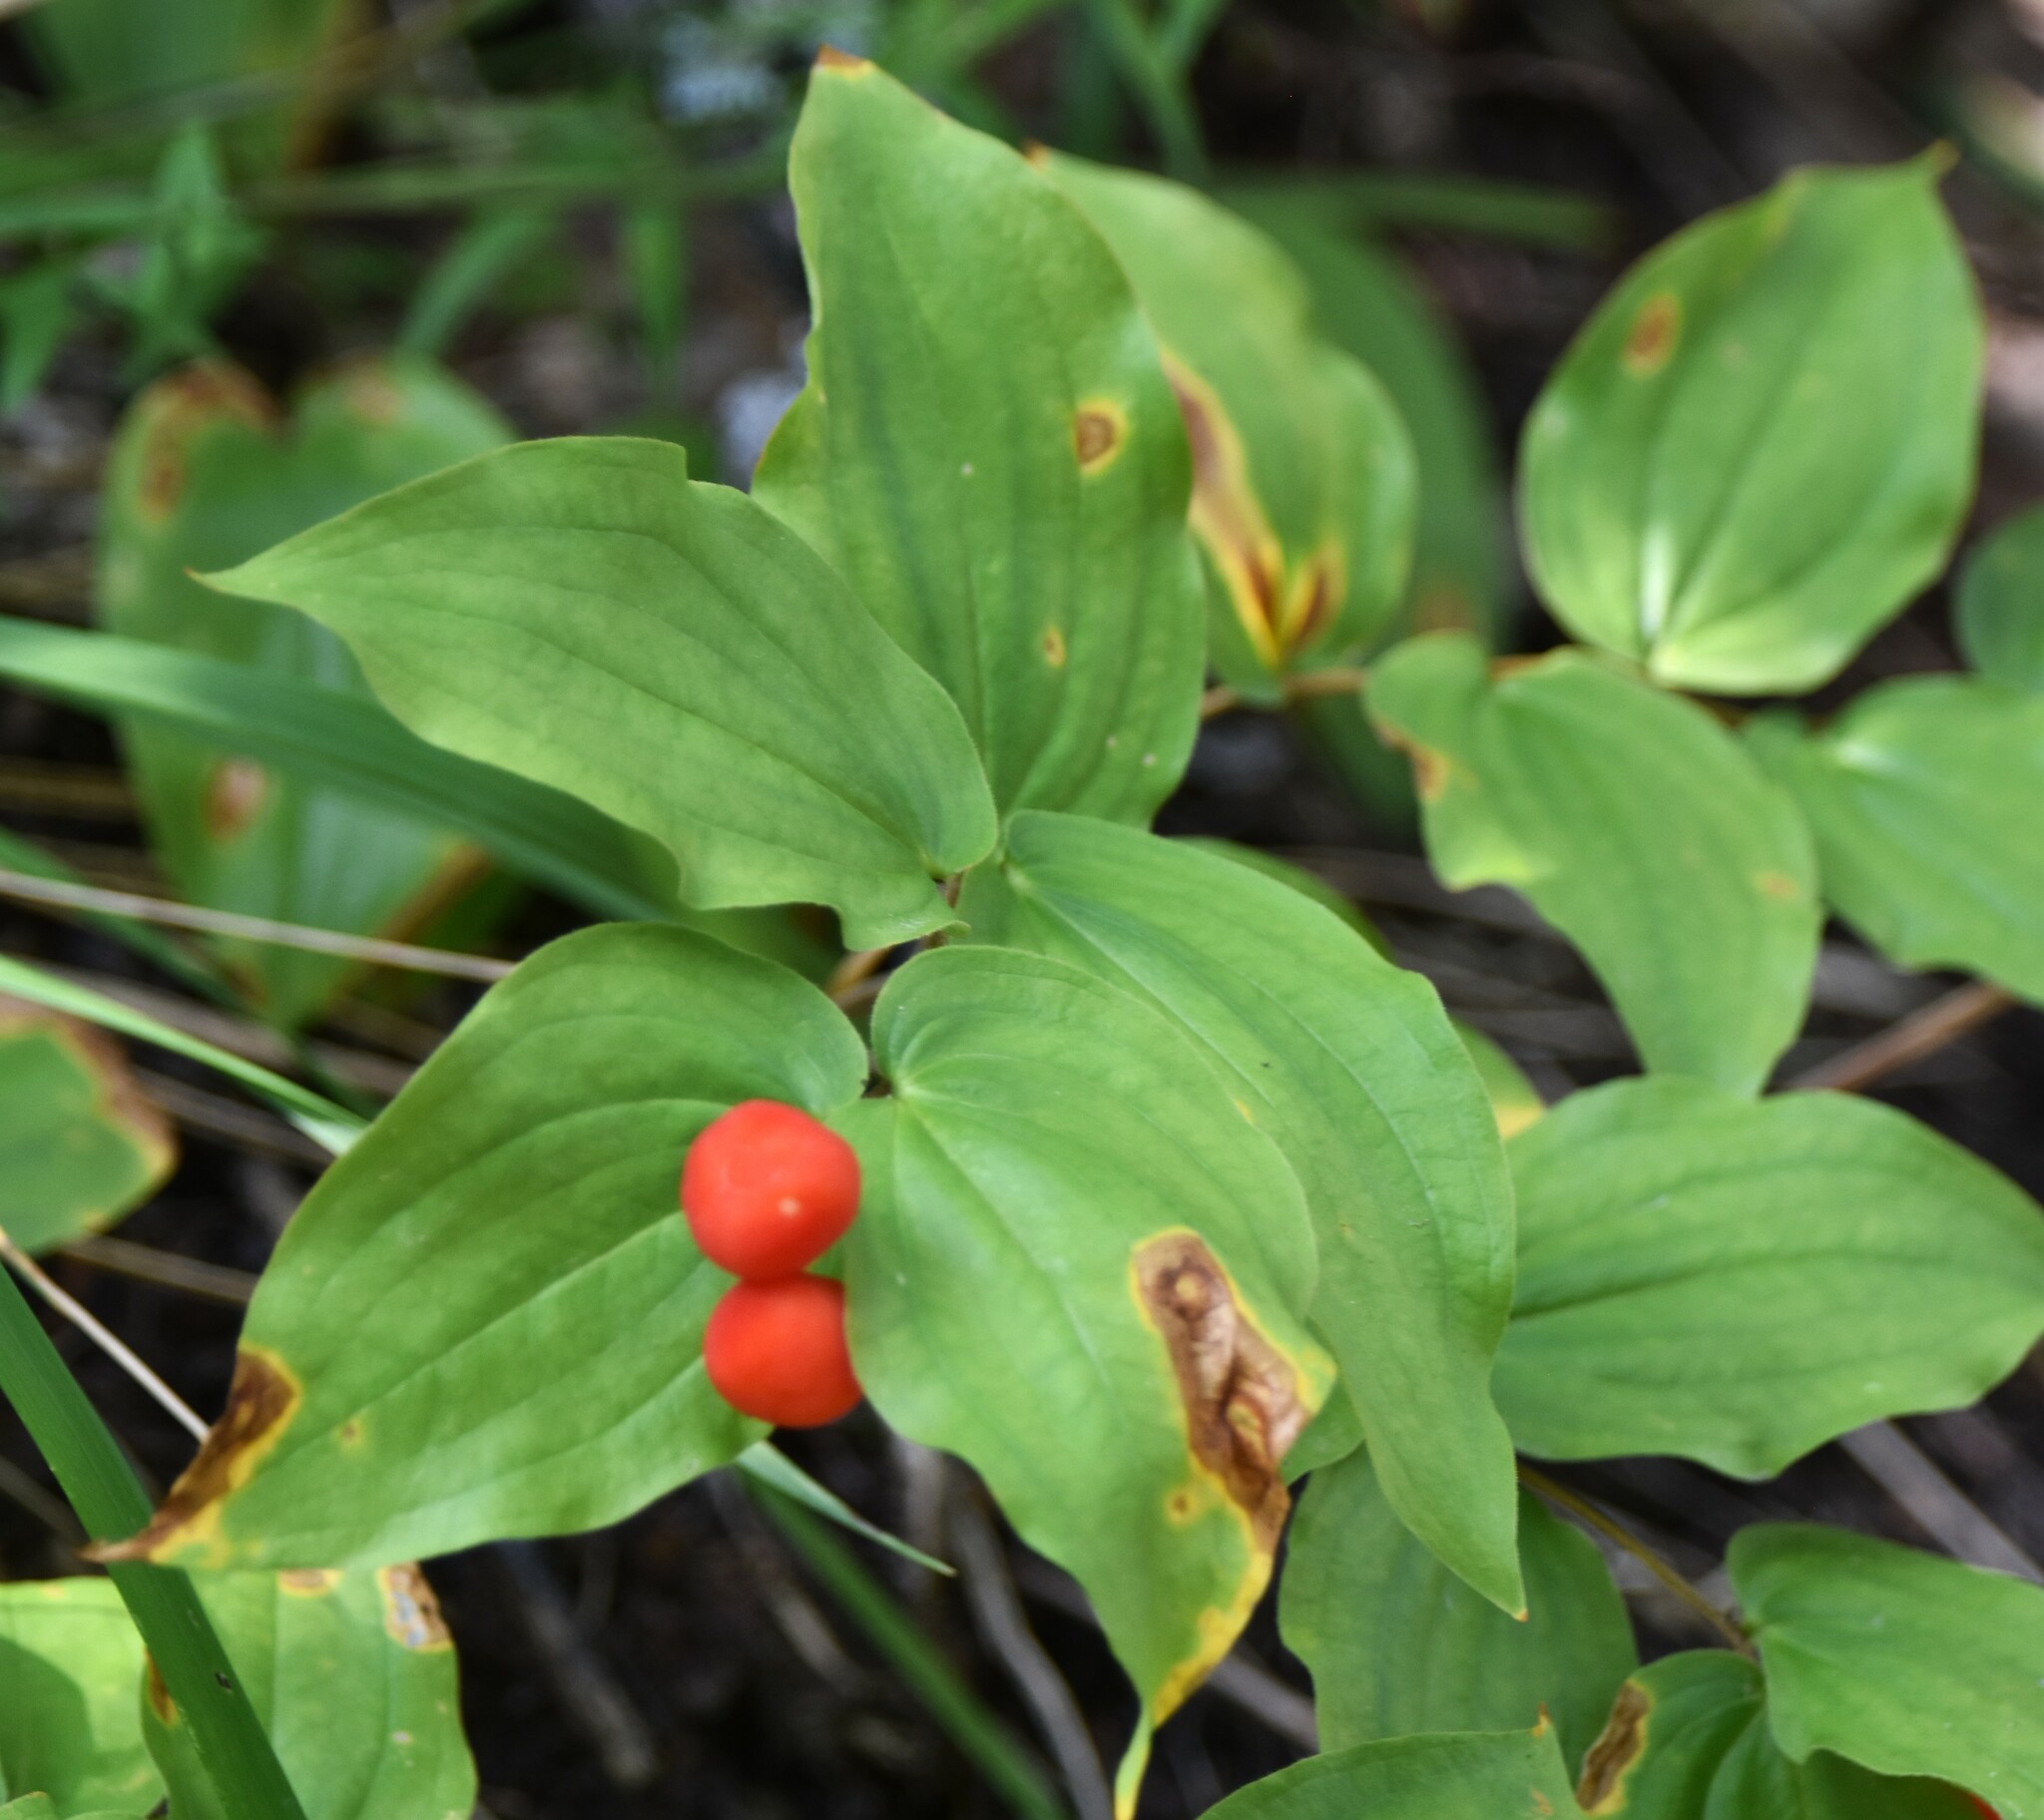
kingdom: Plantae
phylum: Tracheophyta
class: Liliopsida
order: Liliales
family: Liliaceae
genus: Prosartes
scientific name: Prosartes trachycarpa
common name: Rough-fruit fairy-bells
